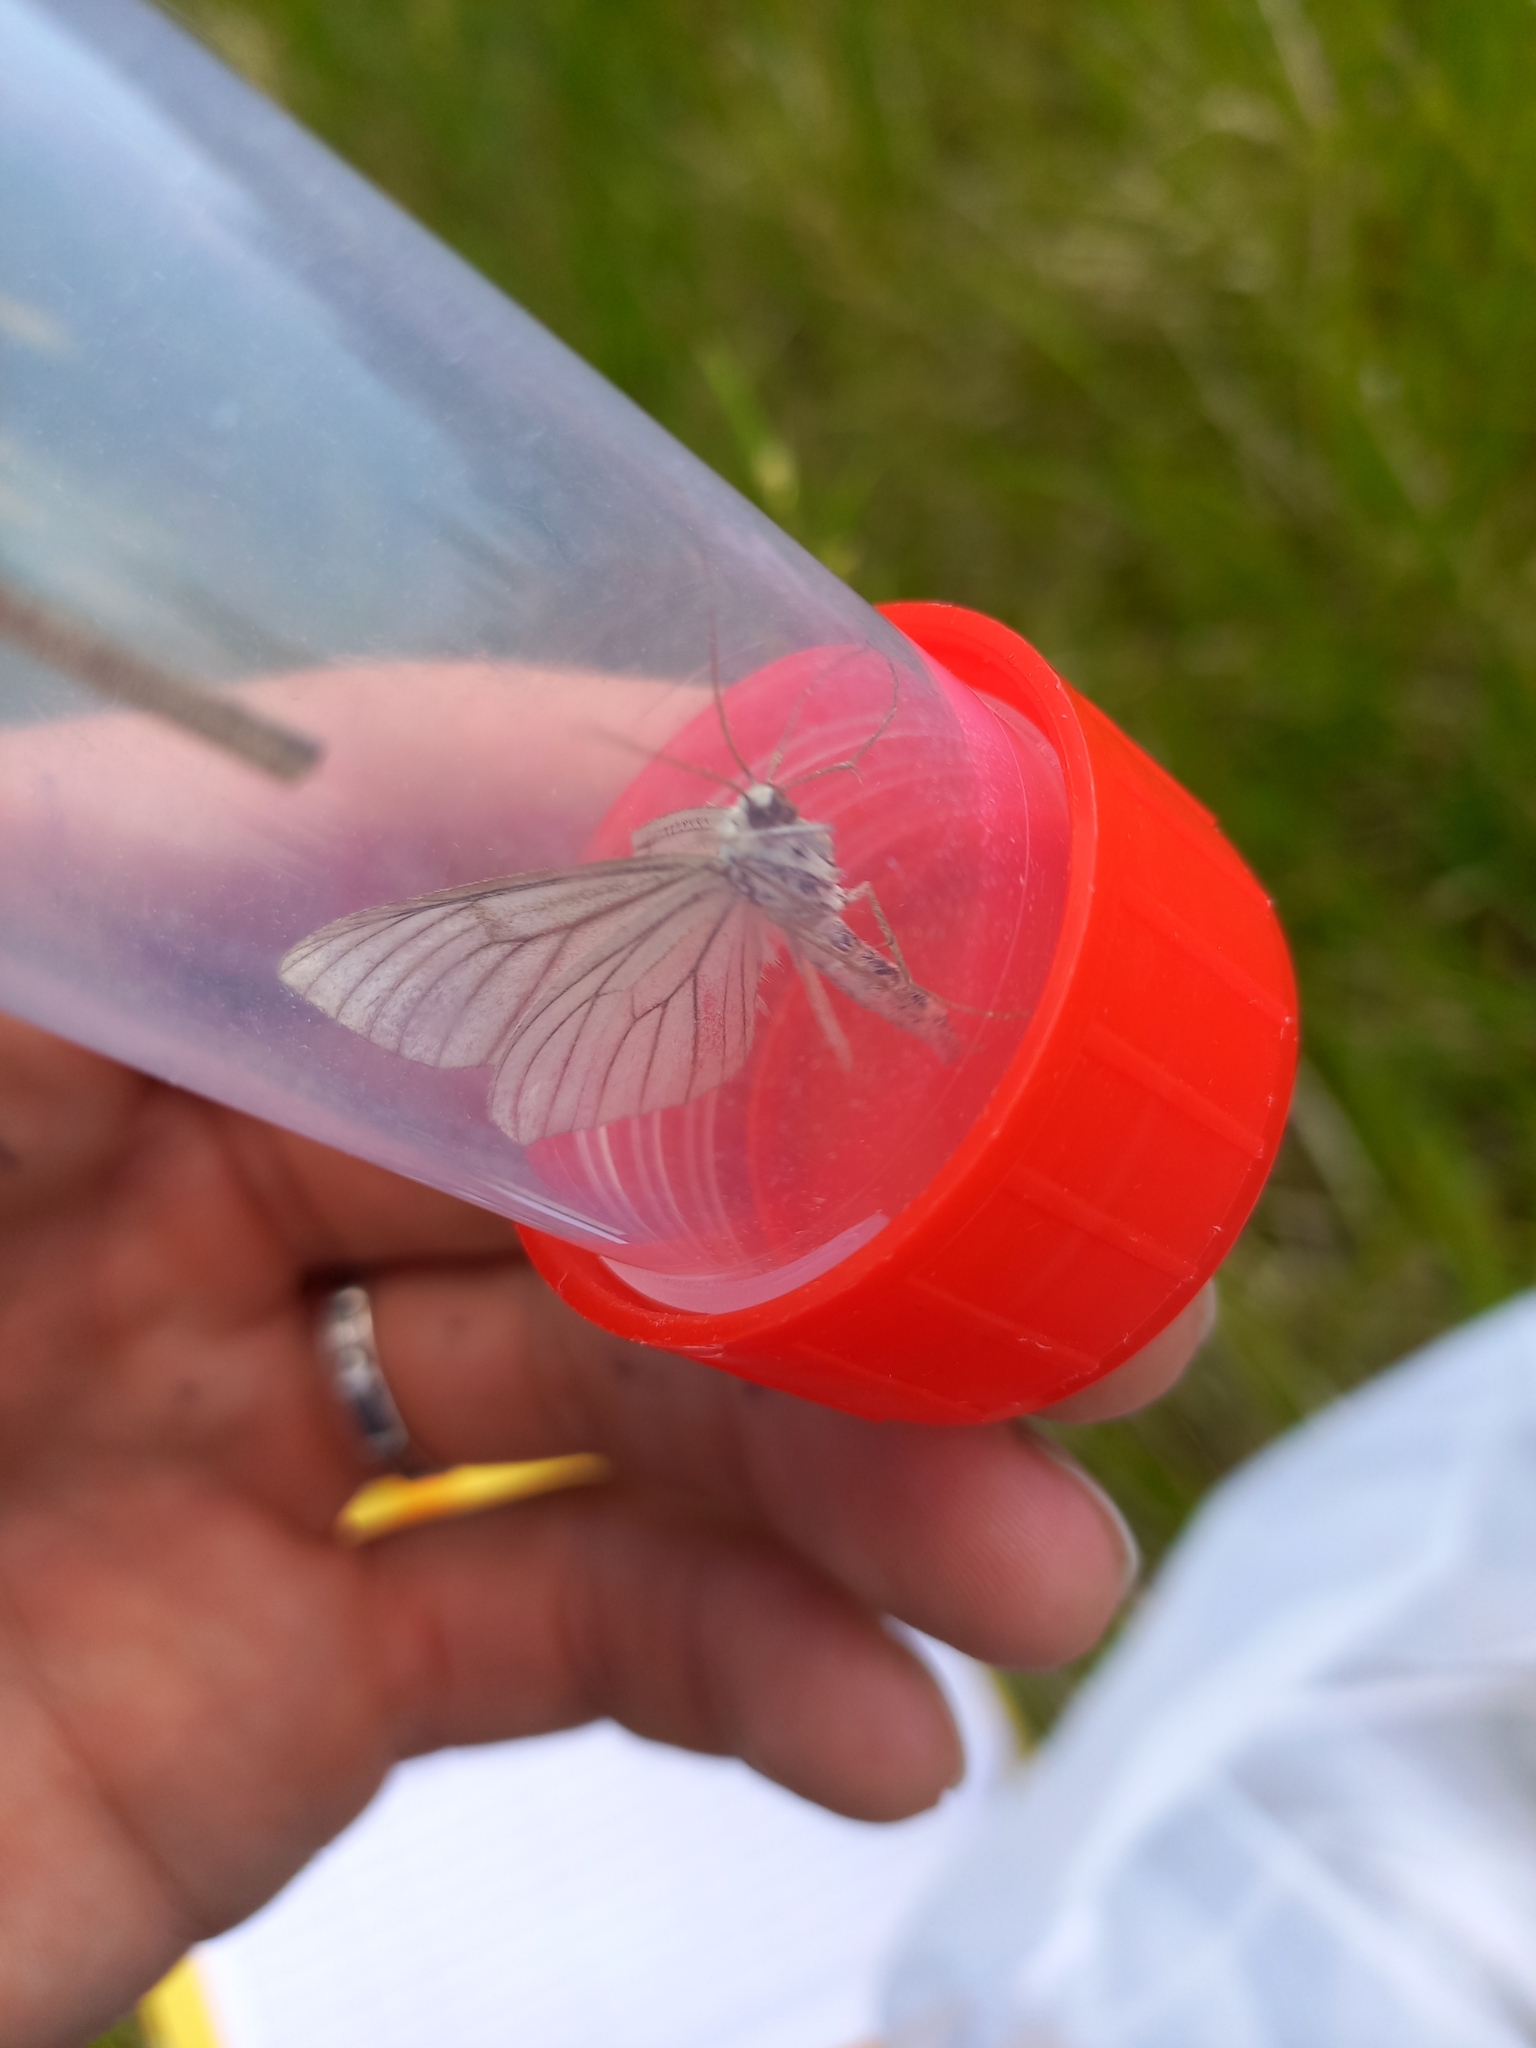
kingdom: Animalia
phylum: Arthropoda
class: Insecta
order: Lepidoptera
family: Geometridae
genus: Siona
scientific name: Siona lineata
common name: Black-veined moth
